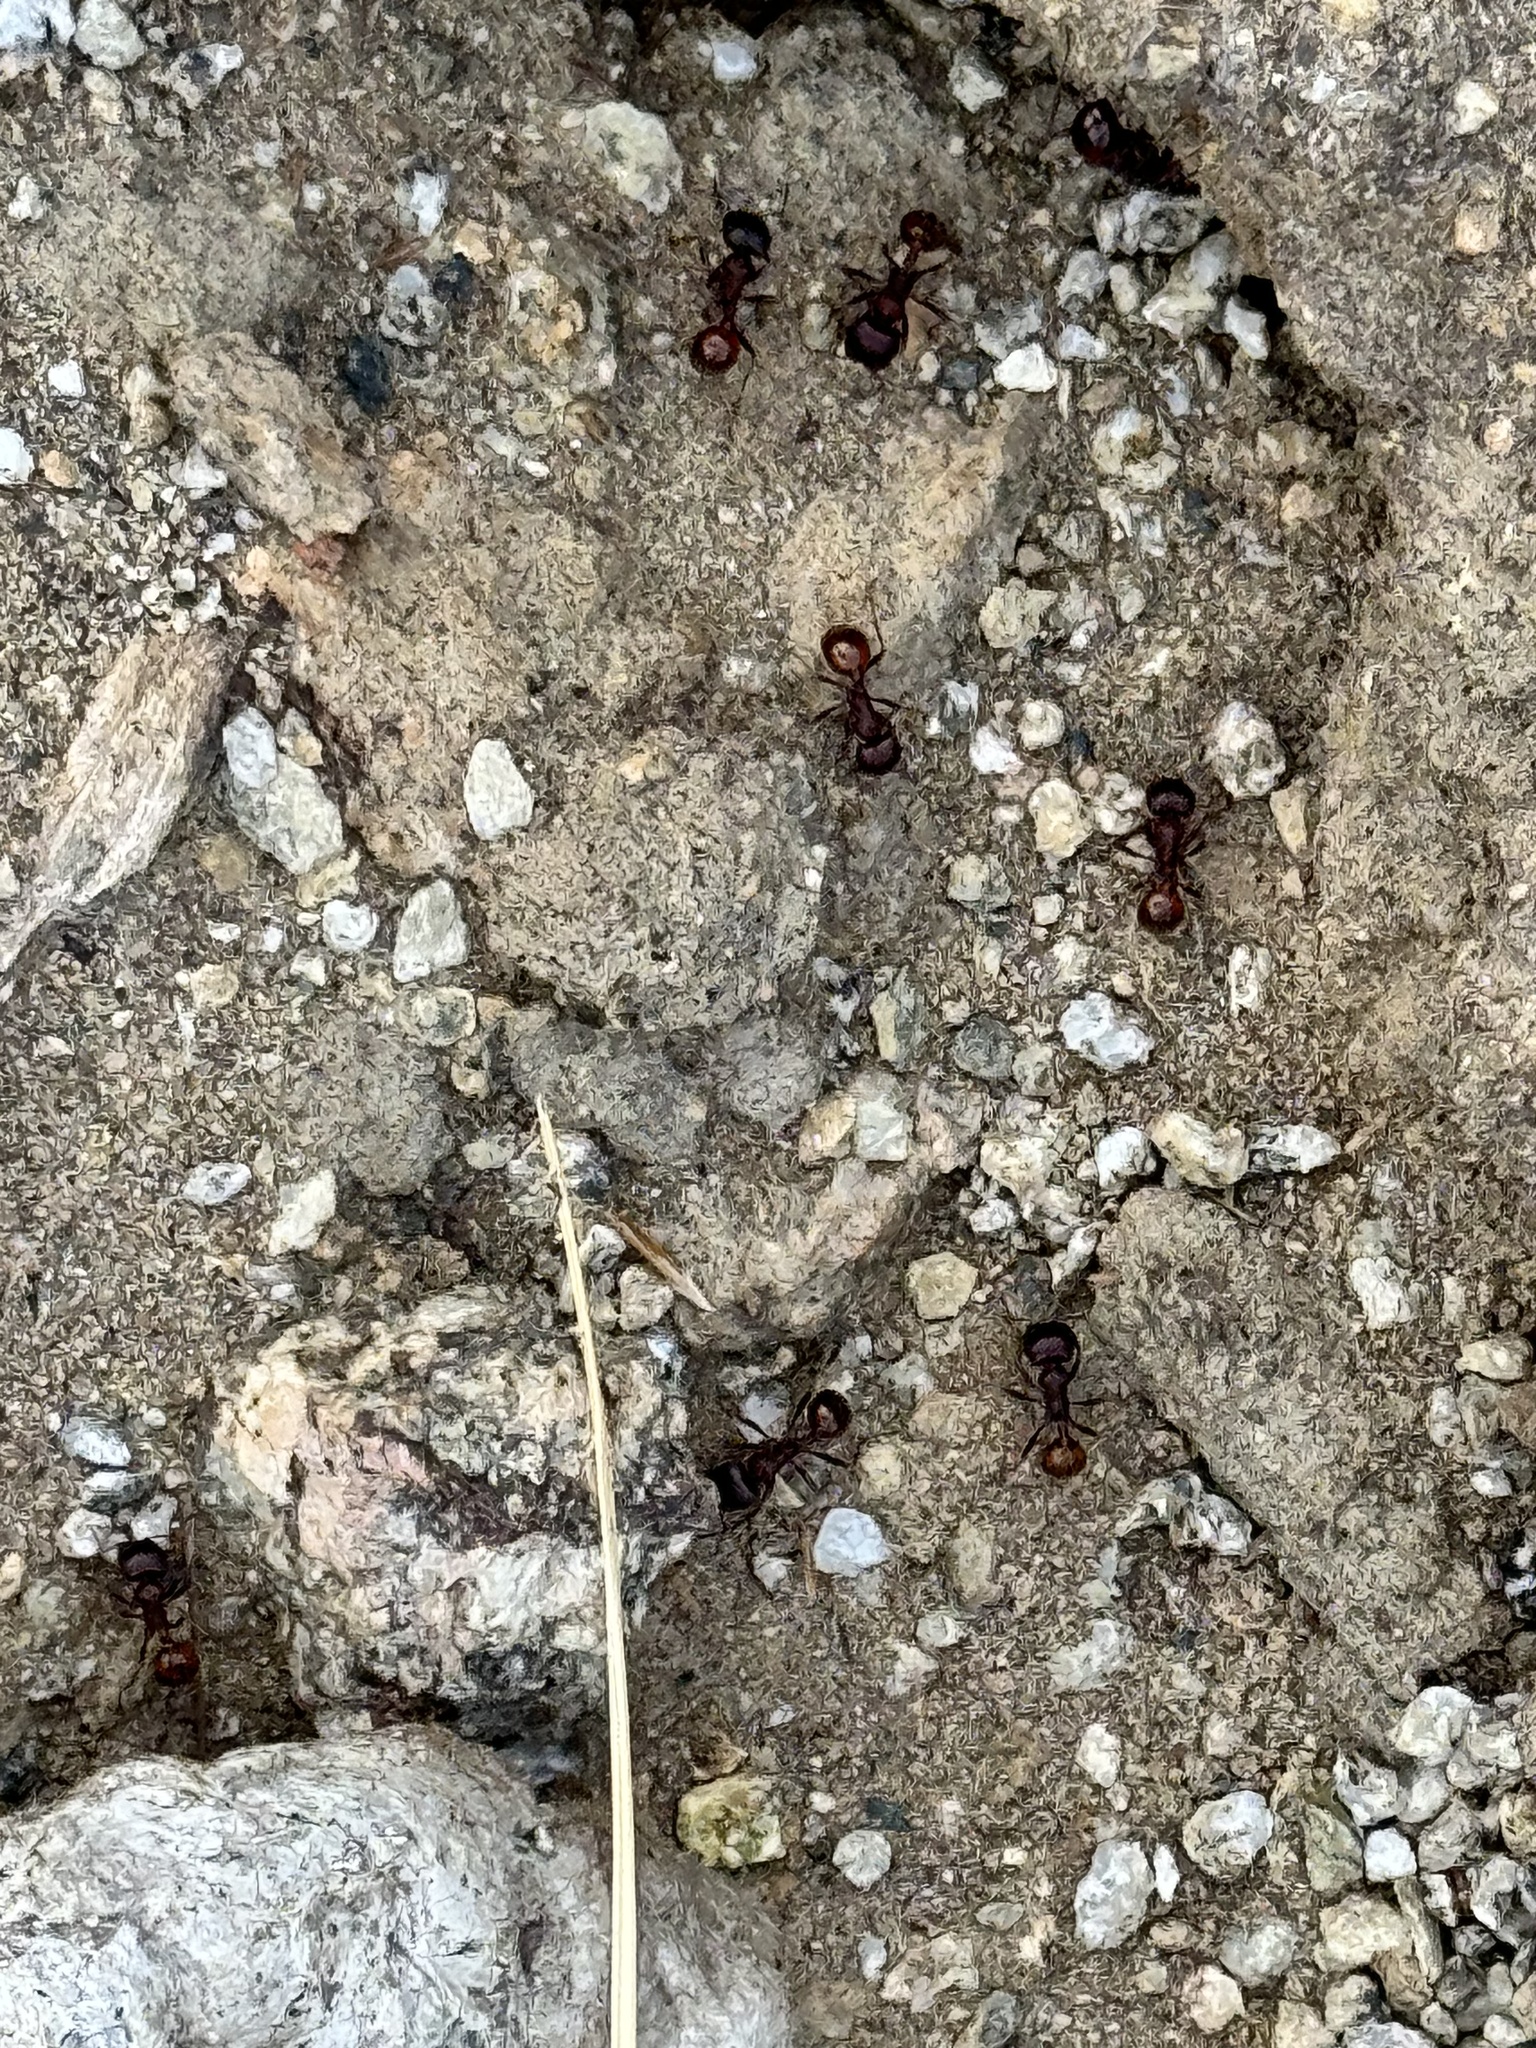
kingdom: Animalia
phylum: Arthropoda
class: Insecta
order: Hymenoptera
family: Formicidae
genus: Pogonomyrmex
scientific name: Pogonomyrmex rugosus
